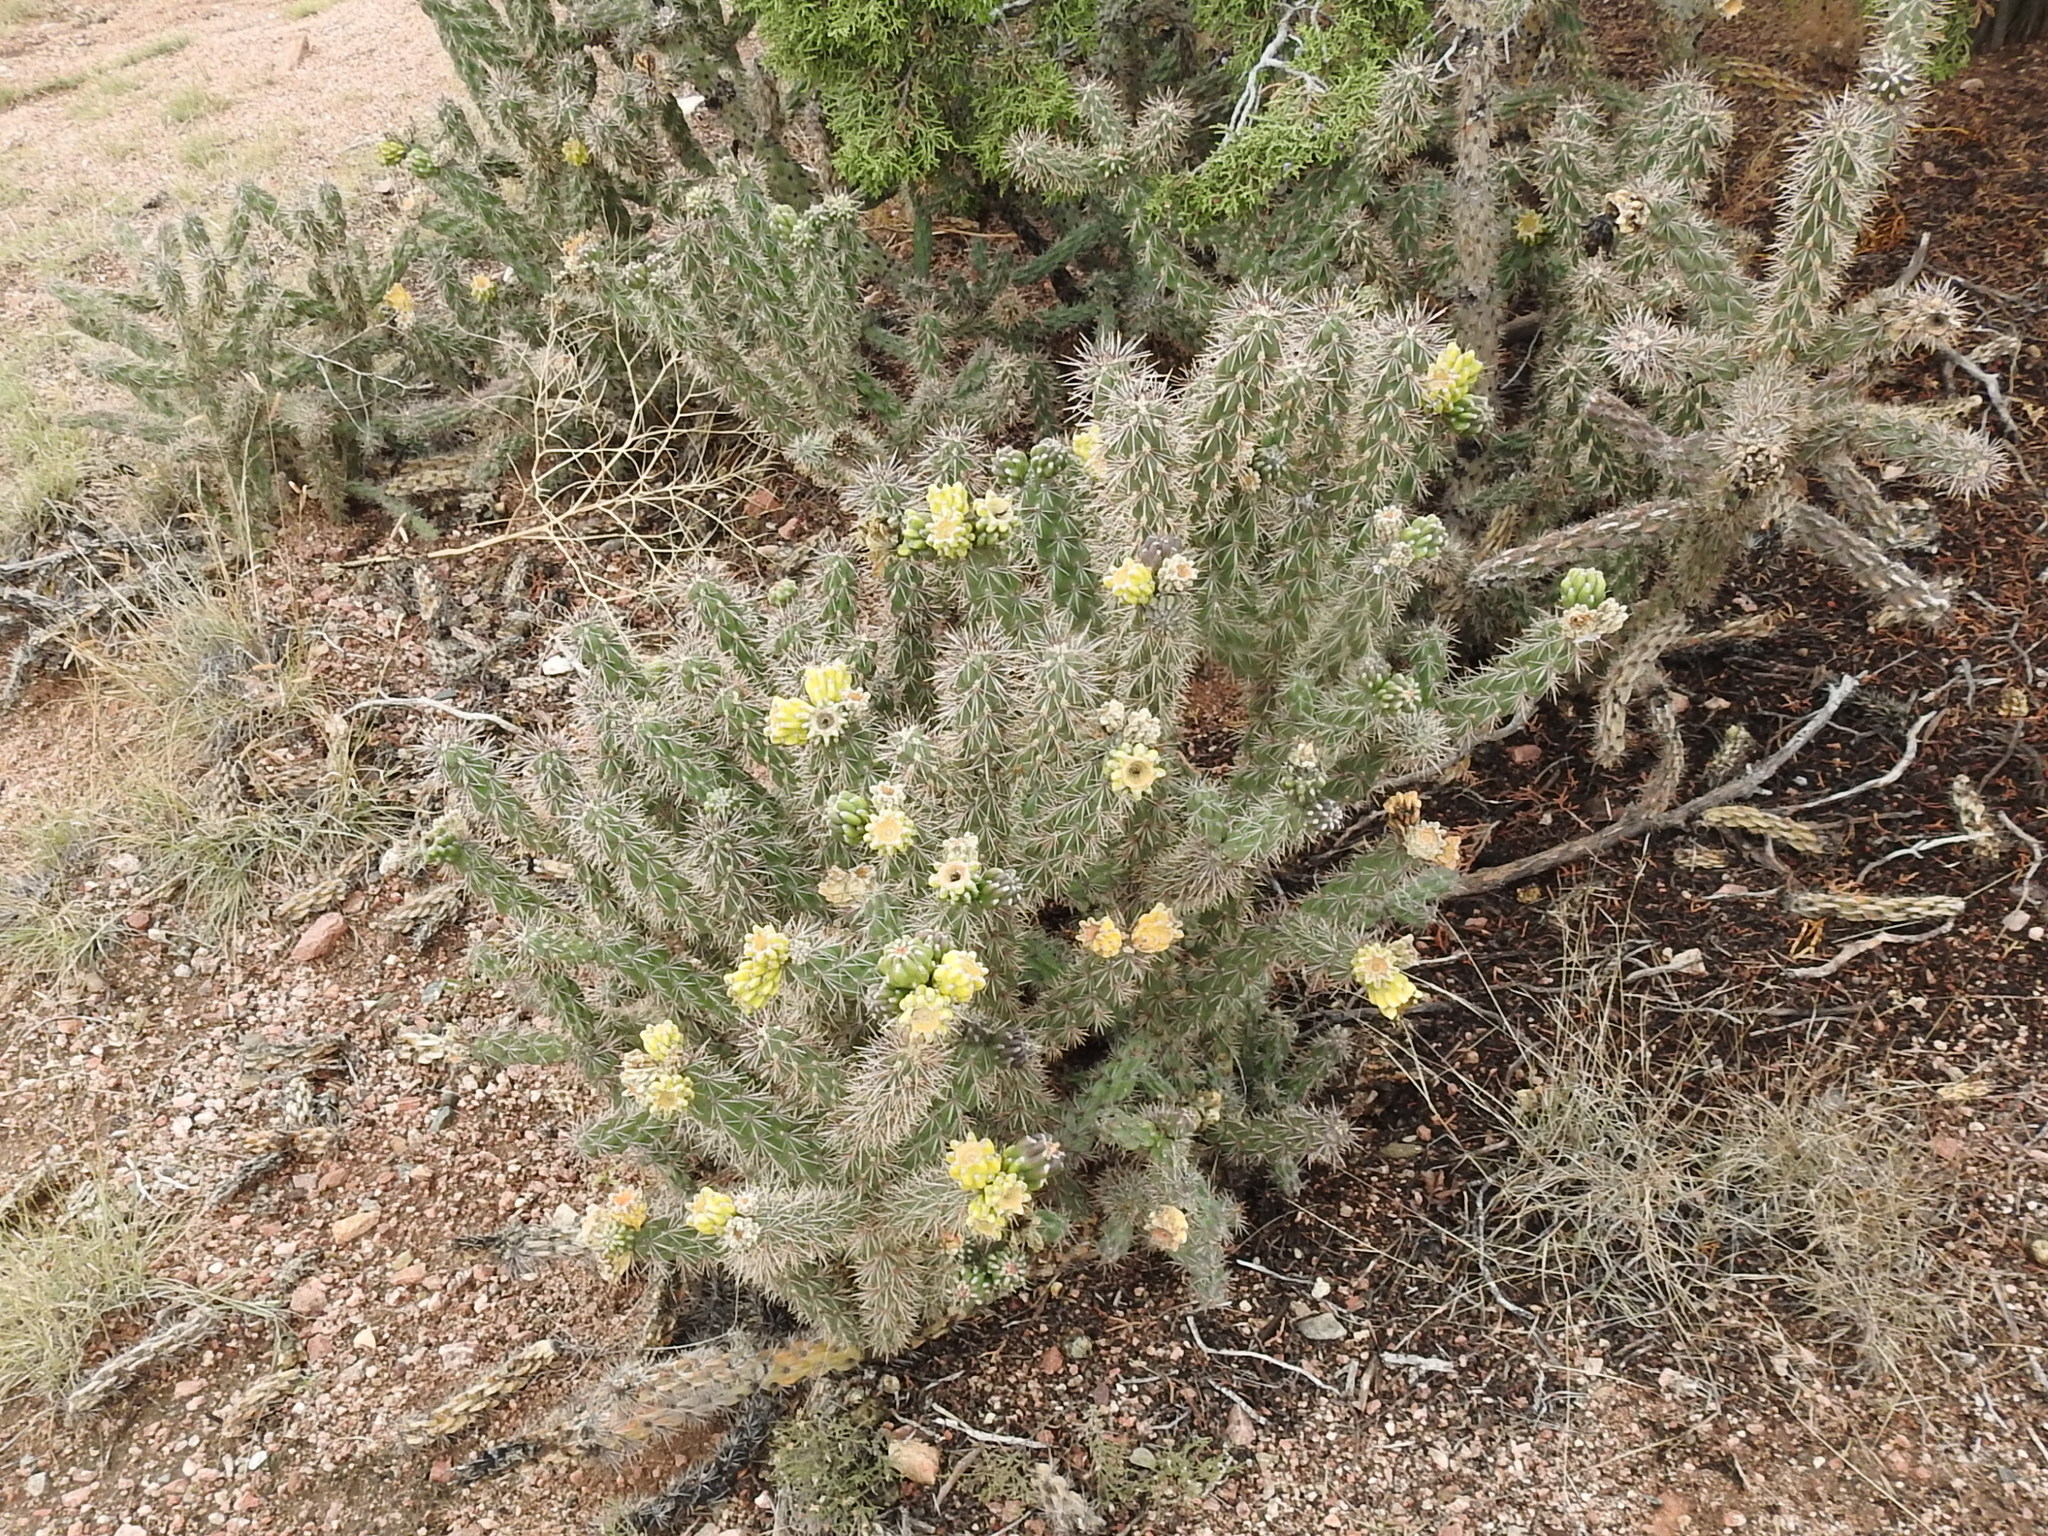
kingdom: Plantae
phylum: Tracheophyta
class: Magnoliopsida
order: Caryophyllales
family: Cactaceae
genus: Cylindropuntia
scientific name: Cylindropuntia imbricata
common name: Candelabrum cactus
